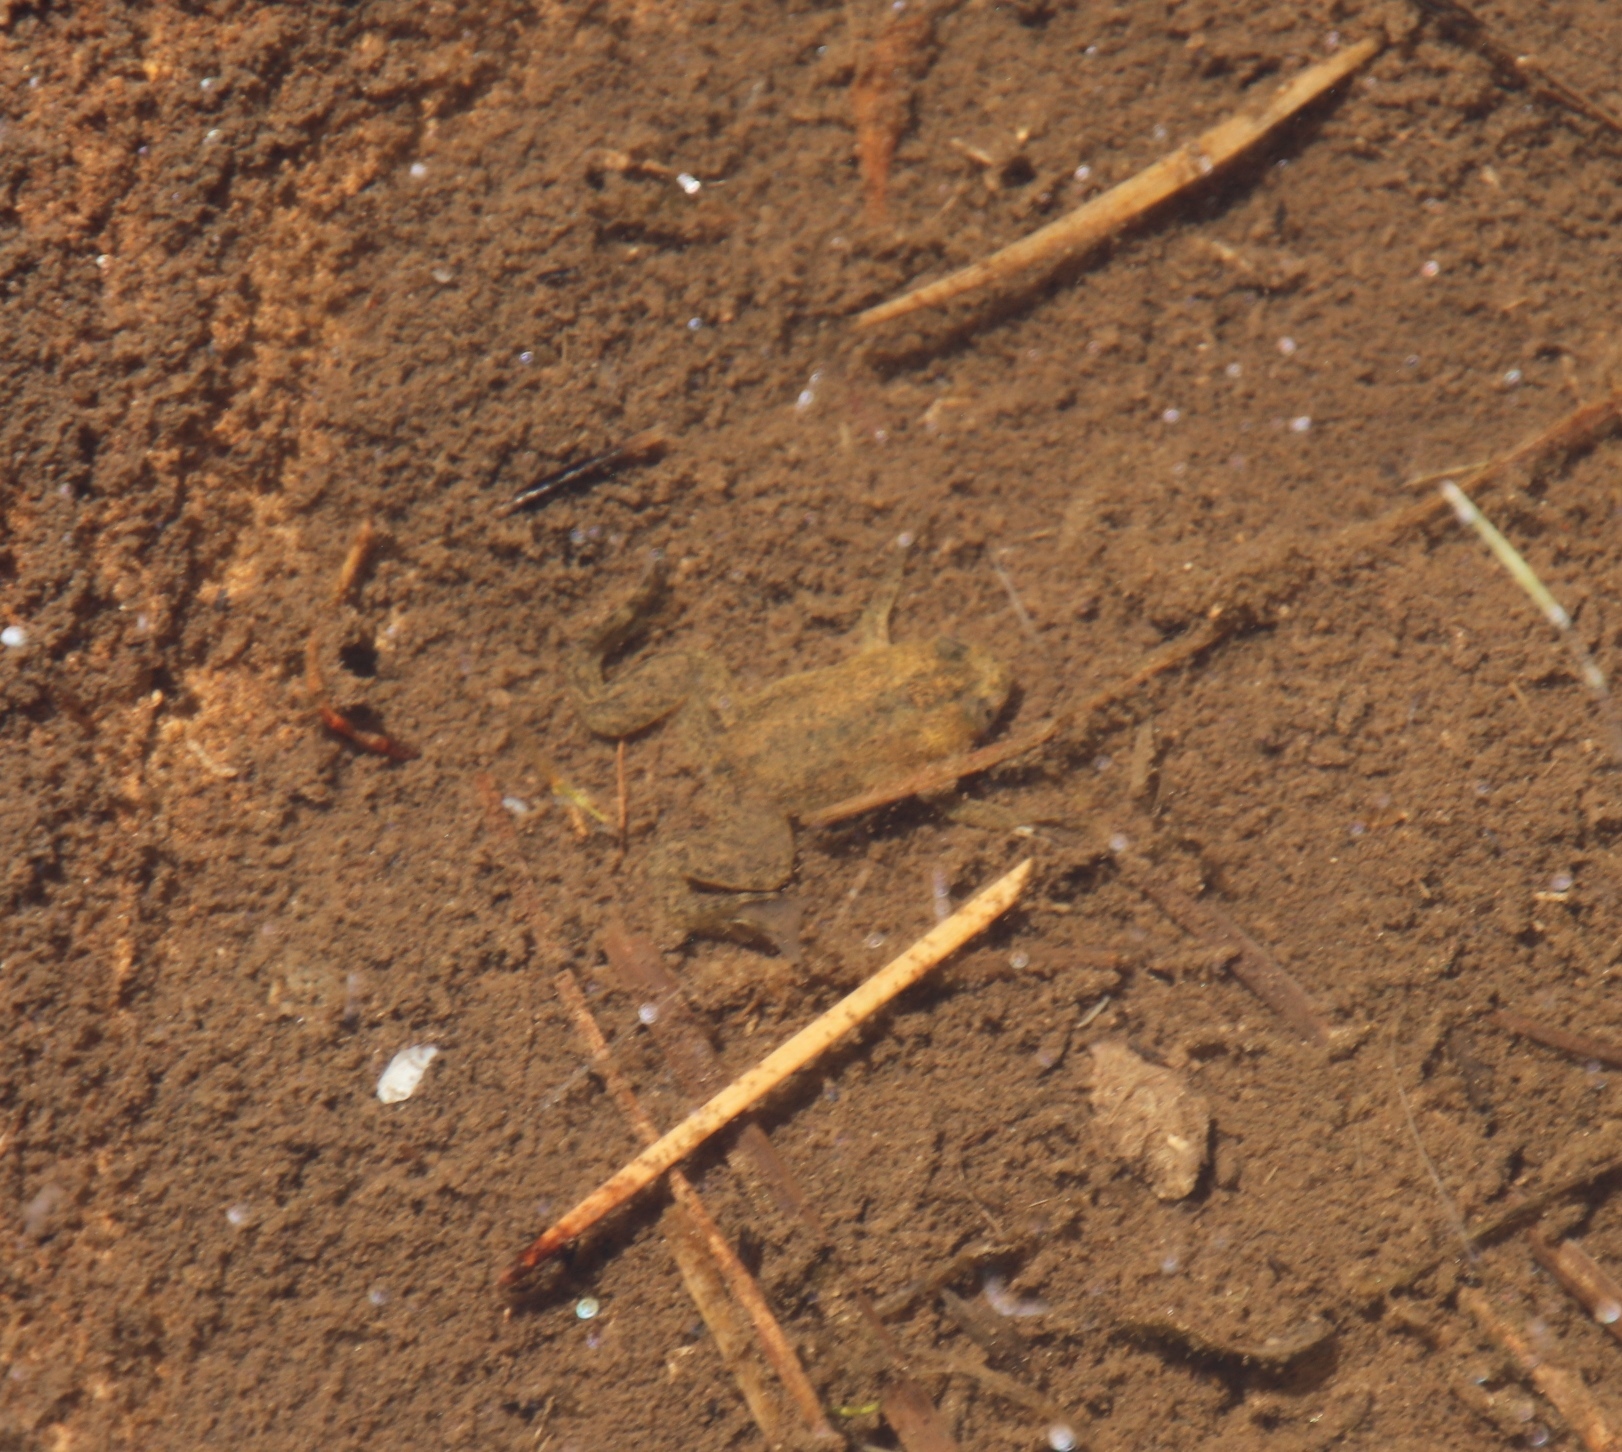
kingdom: Animalia
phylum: Chordata
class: Amphibia
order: Anura
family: Pipidae
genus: Xenopus
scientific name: Xenopus laevis
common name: African clawed frog
